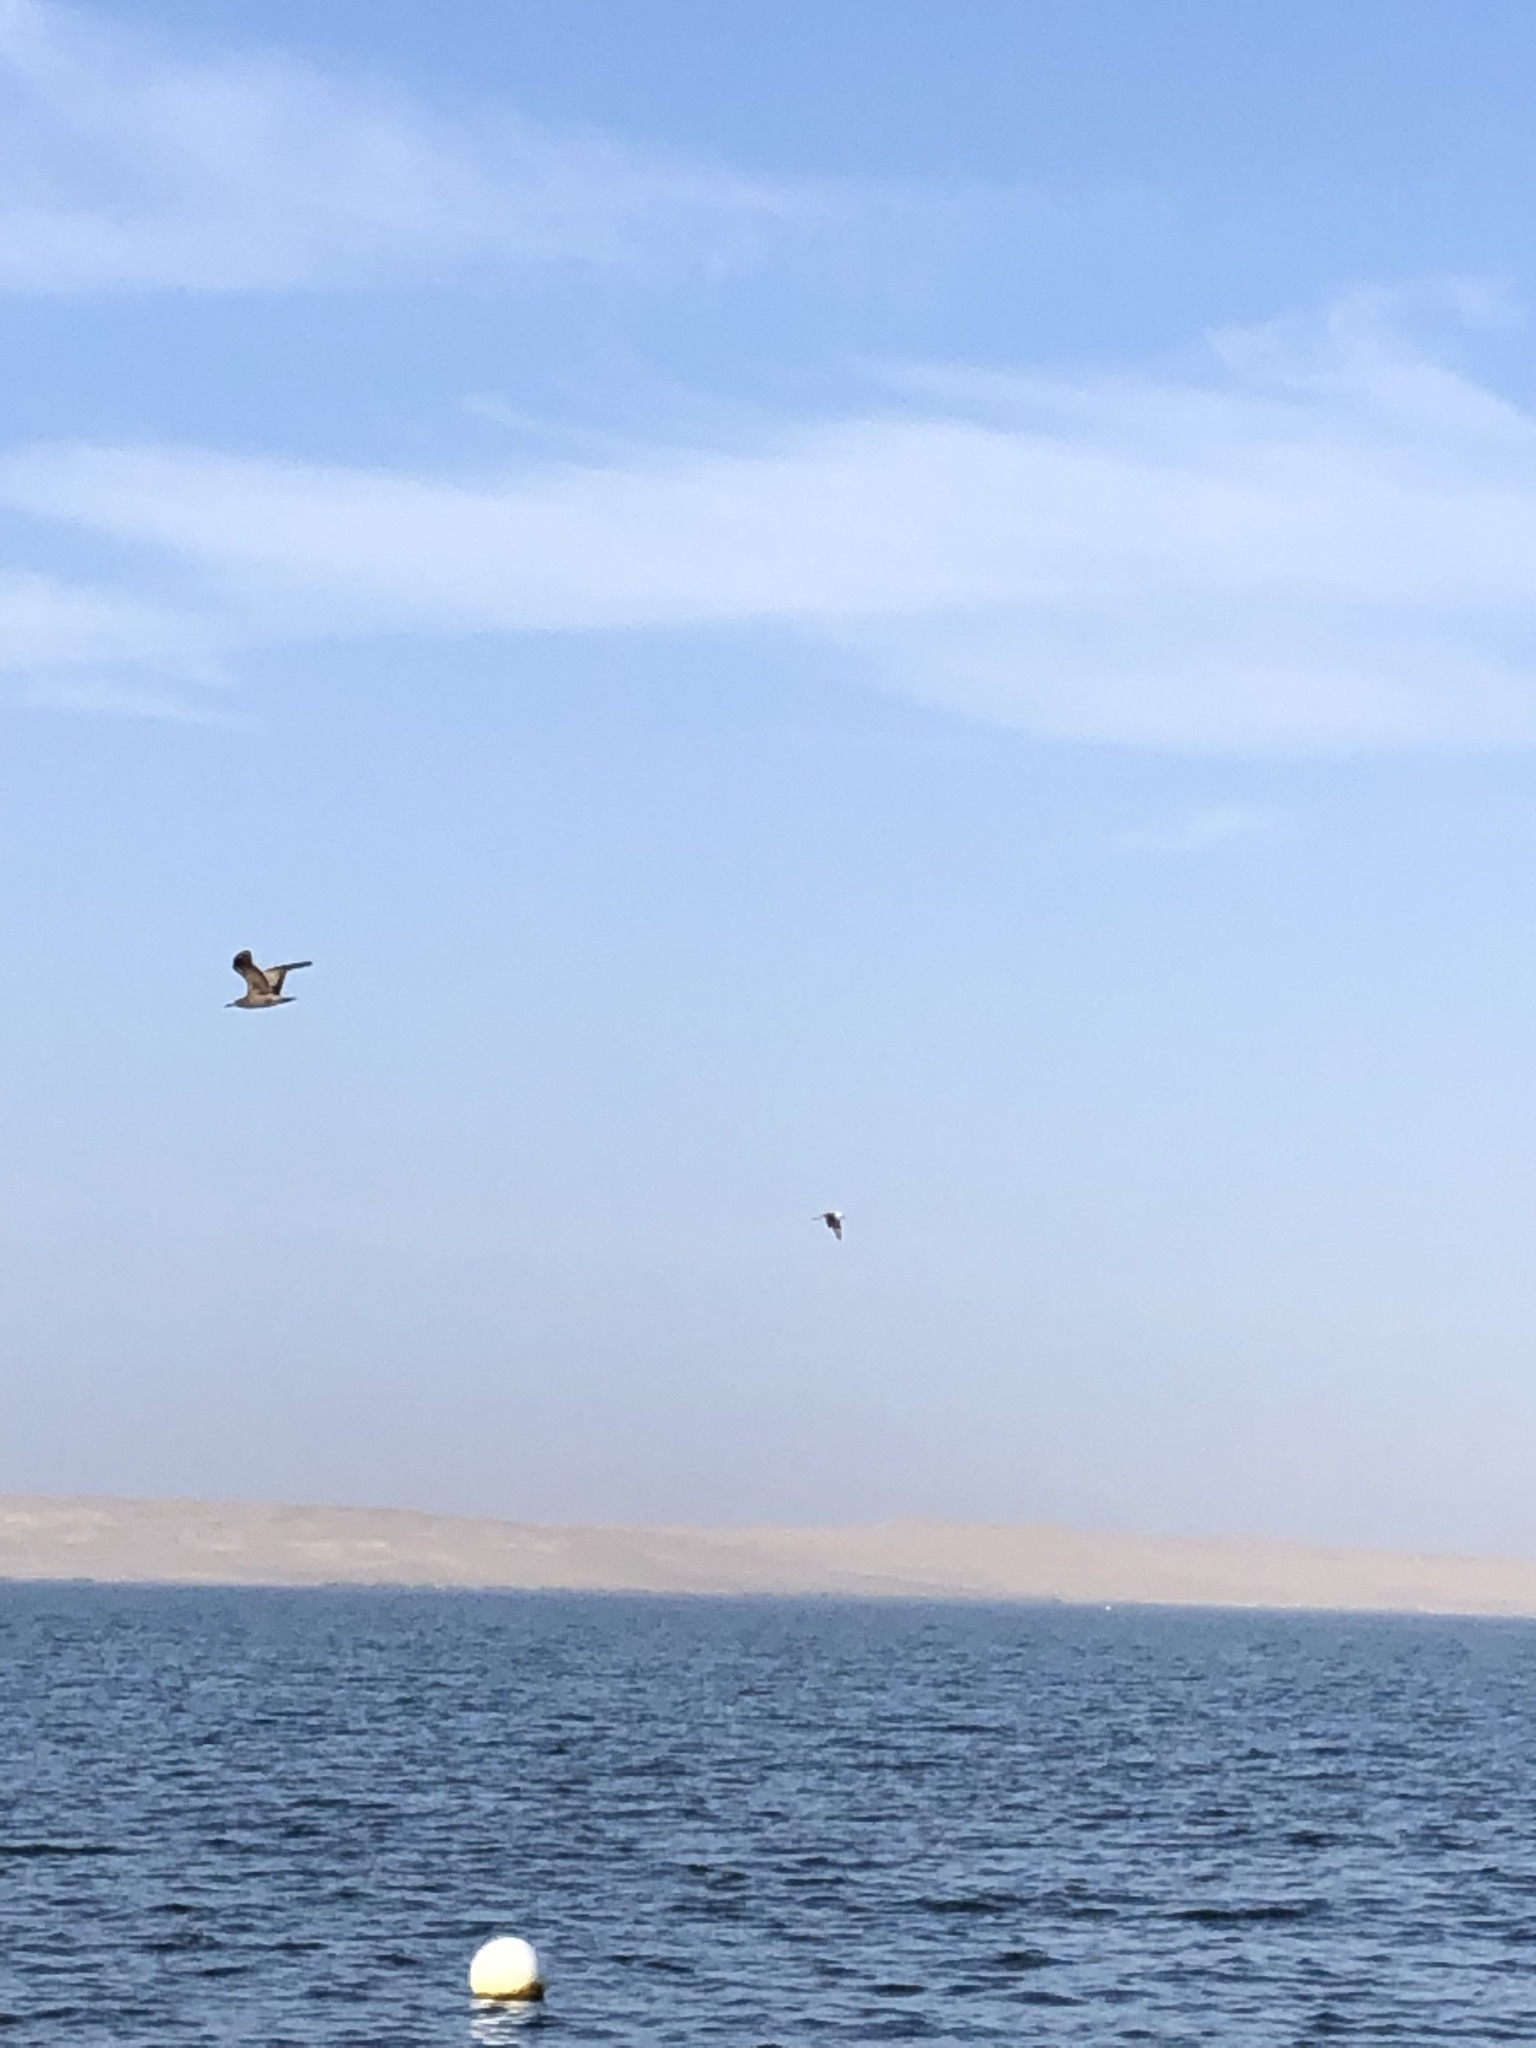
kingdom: Animalia
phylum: Chordata
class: Aves
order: Suliformes
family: Sulidae
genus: Sula
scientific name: Sula variegata
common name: Peruvian booby
